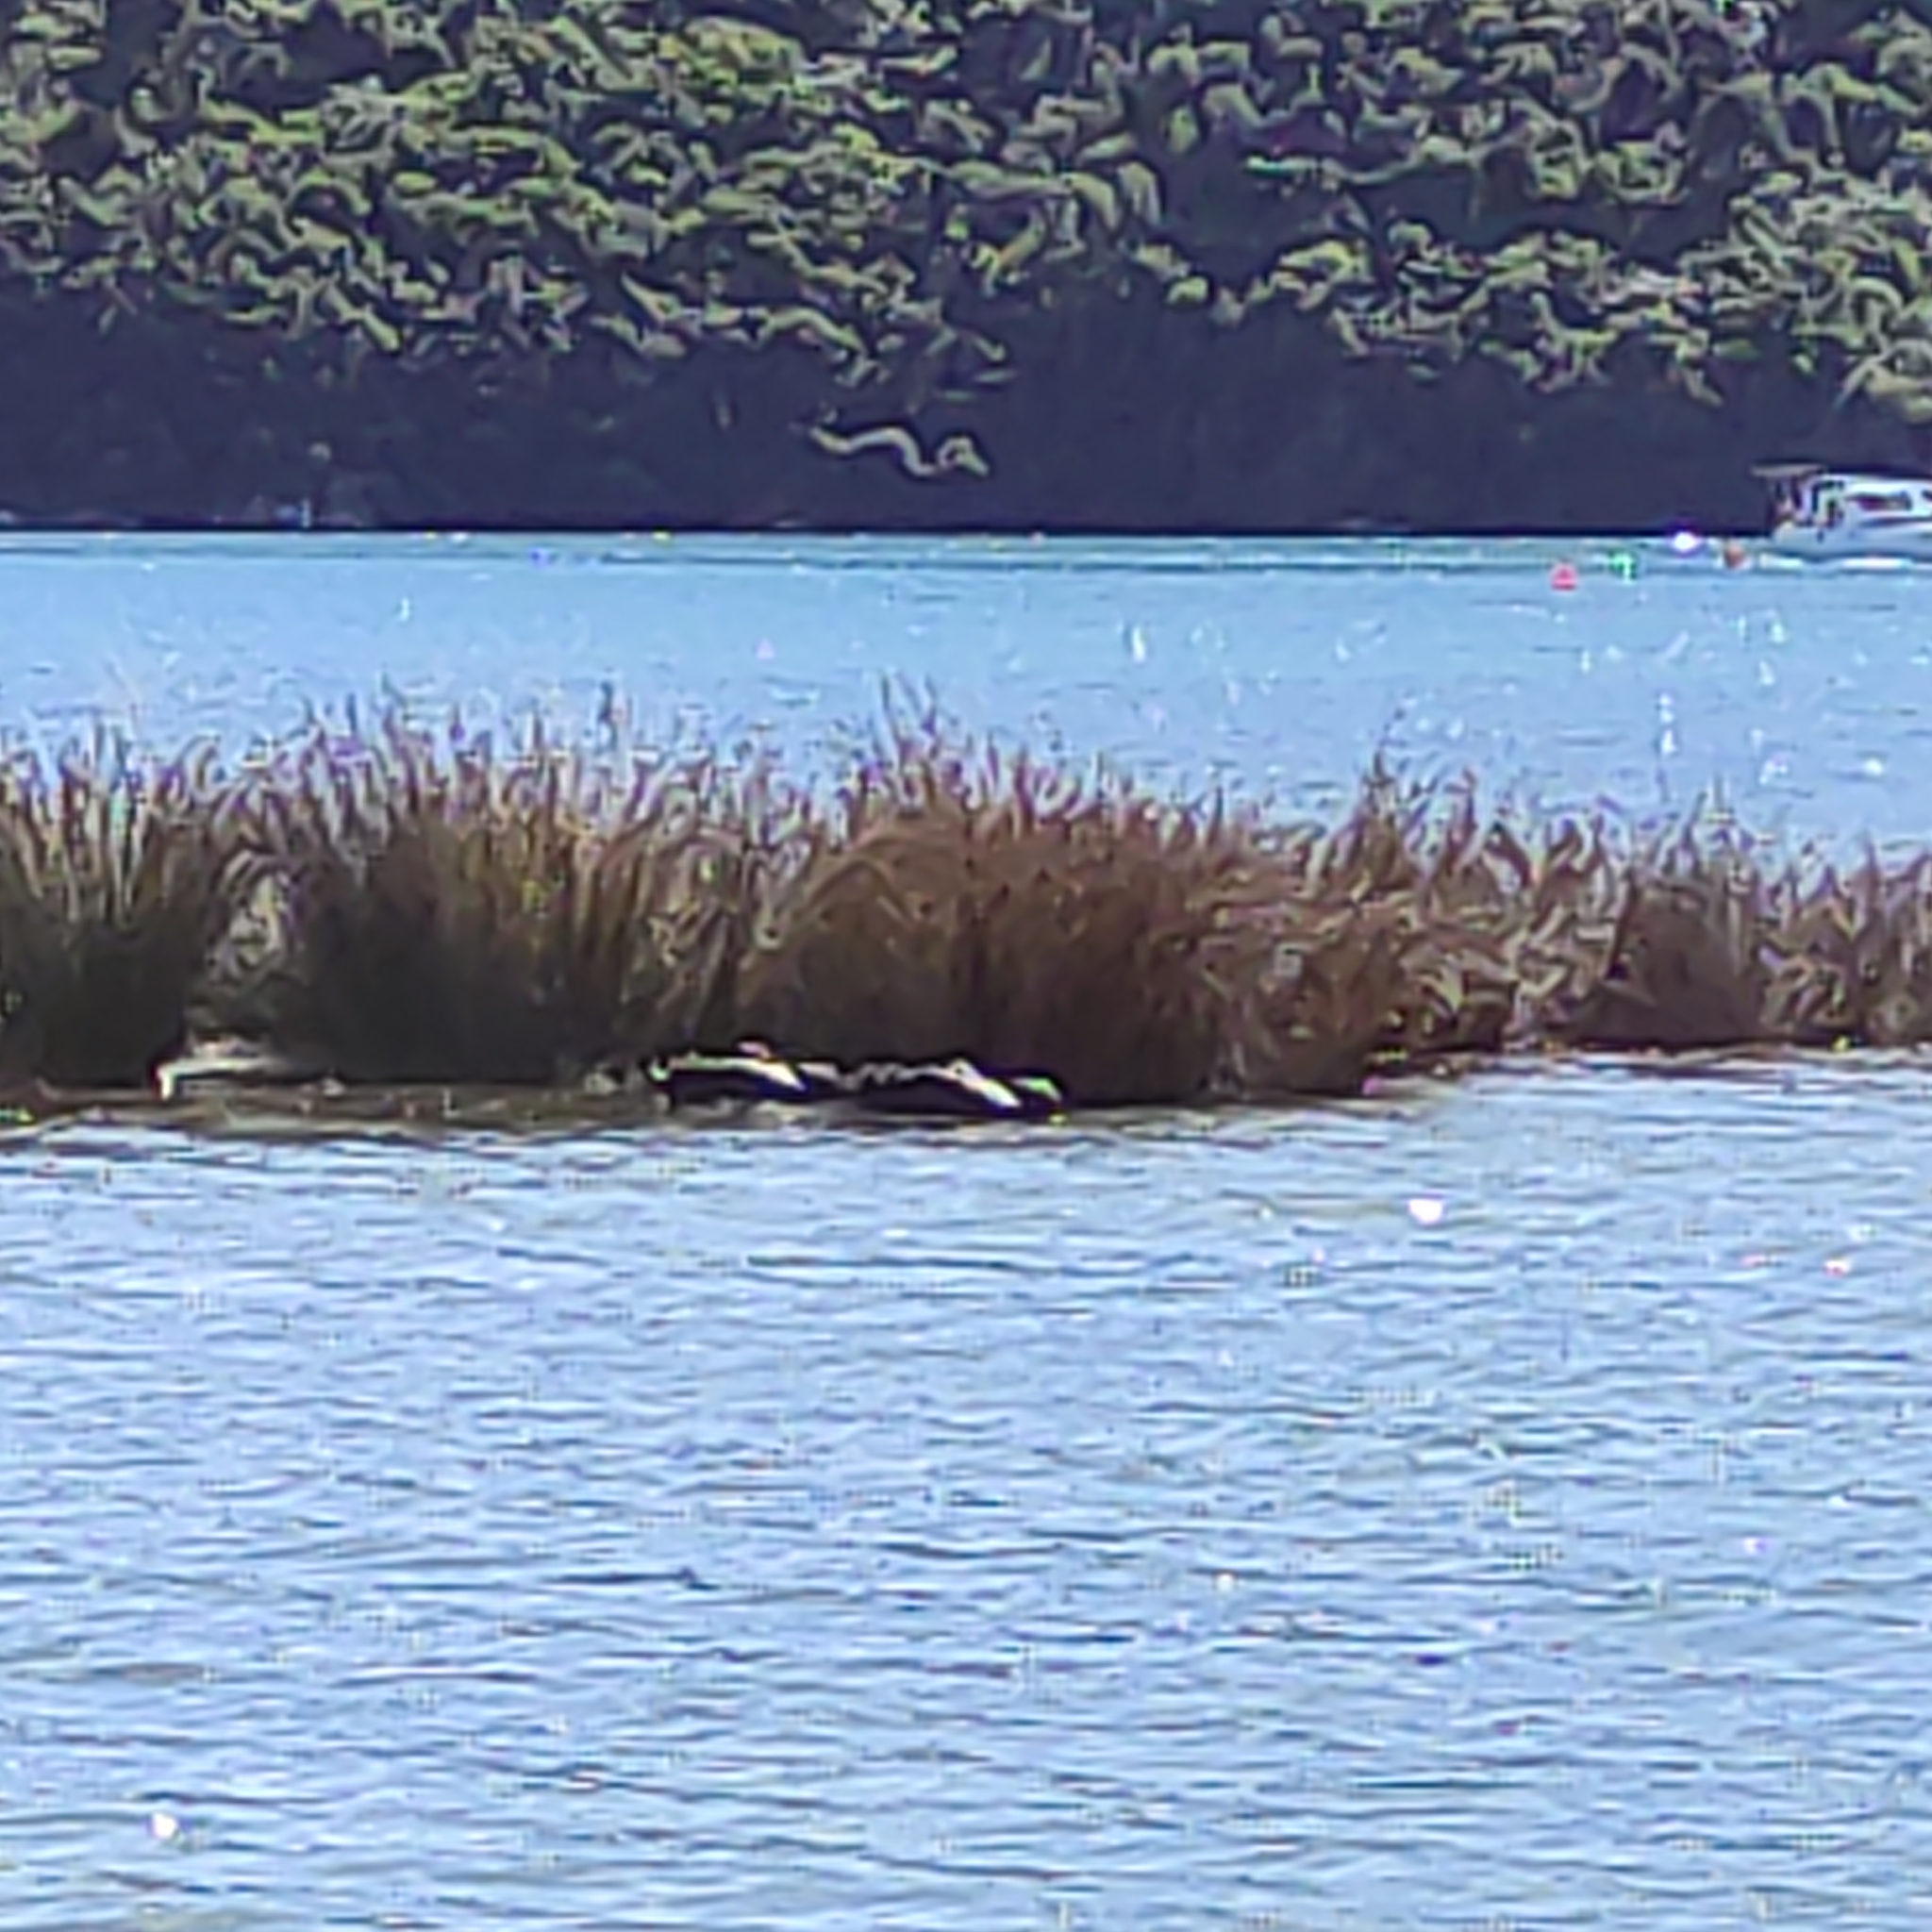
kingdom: Animalia
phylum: Chordata
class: Aves
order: Anseriformes
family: Anatidae
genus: Cygnus
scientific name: Cygnus atratus
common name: Black swan
